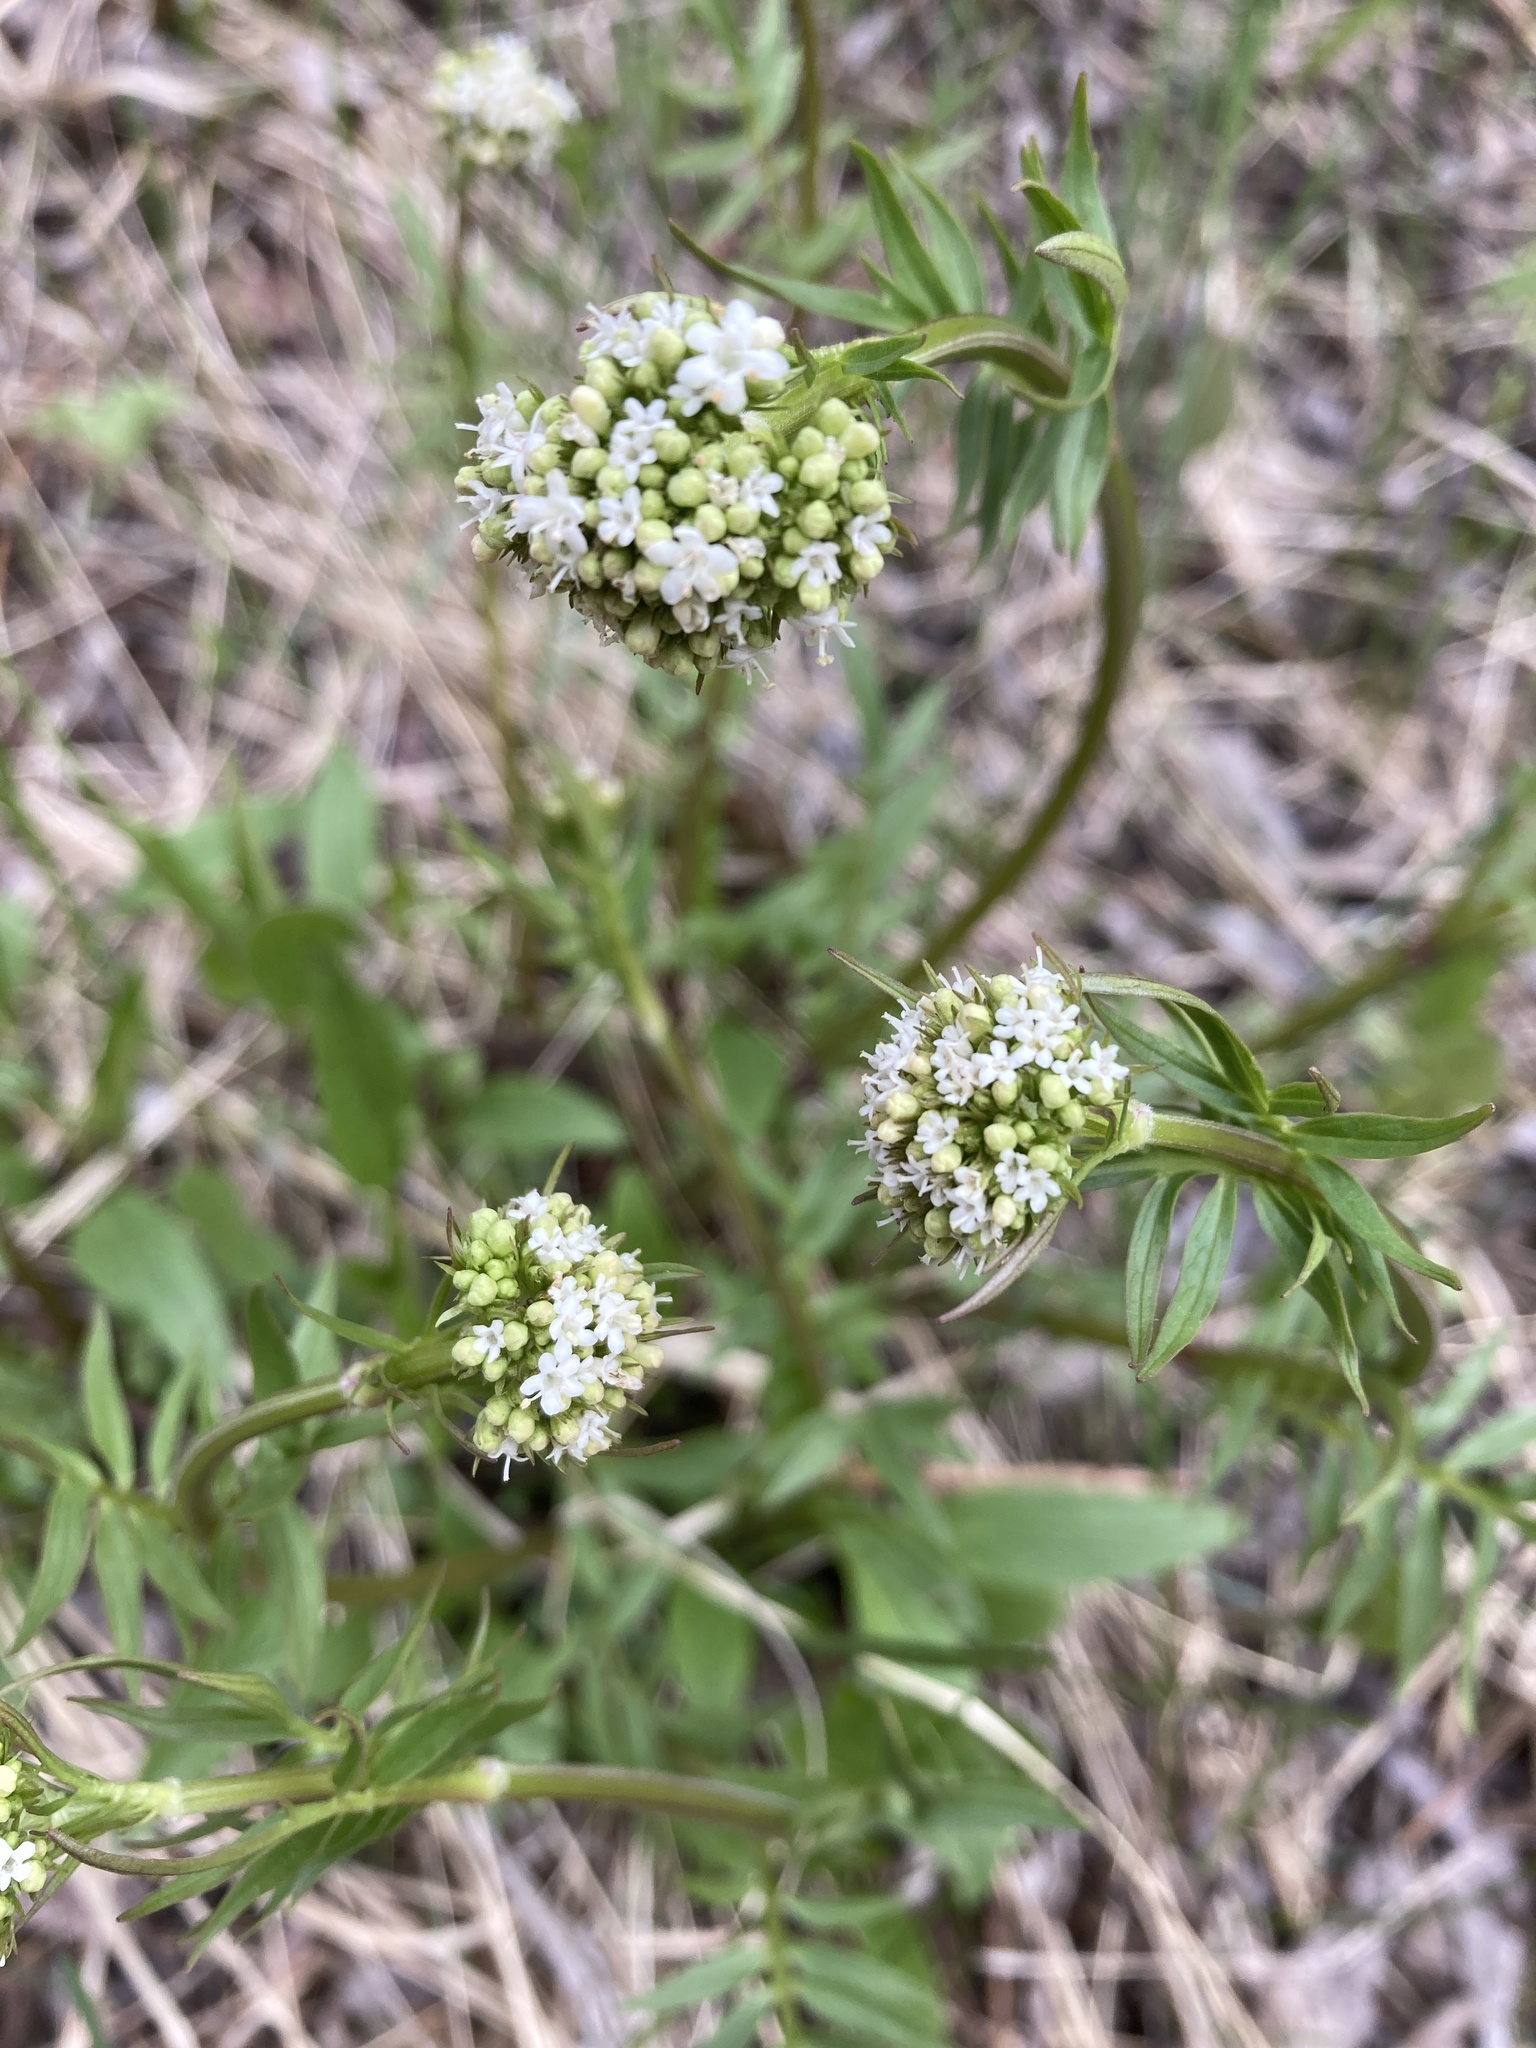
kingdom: Plantae
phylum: Tracheophyta
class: Magnoliopsida
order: Dipsacales
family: Caprifoliaceae
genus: Valeriana
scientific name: Valeriana dioica
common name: Marsh valerian
